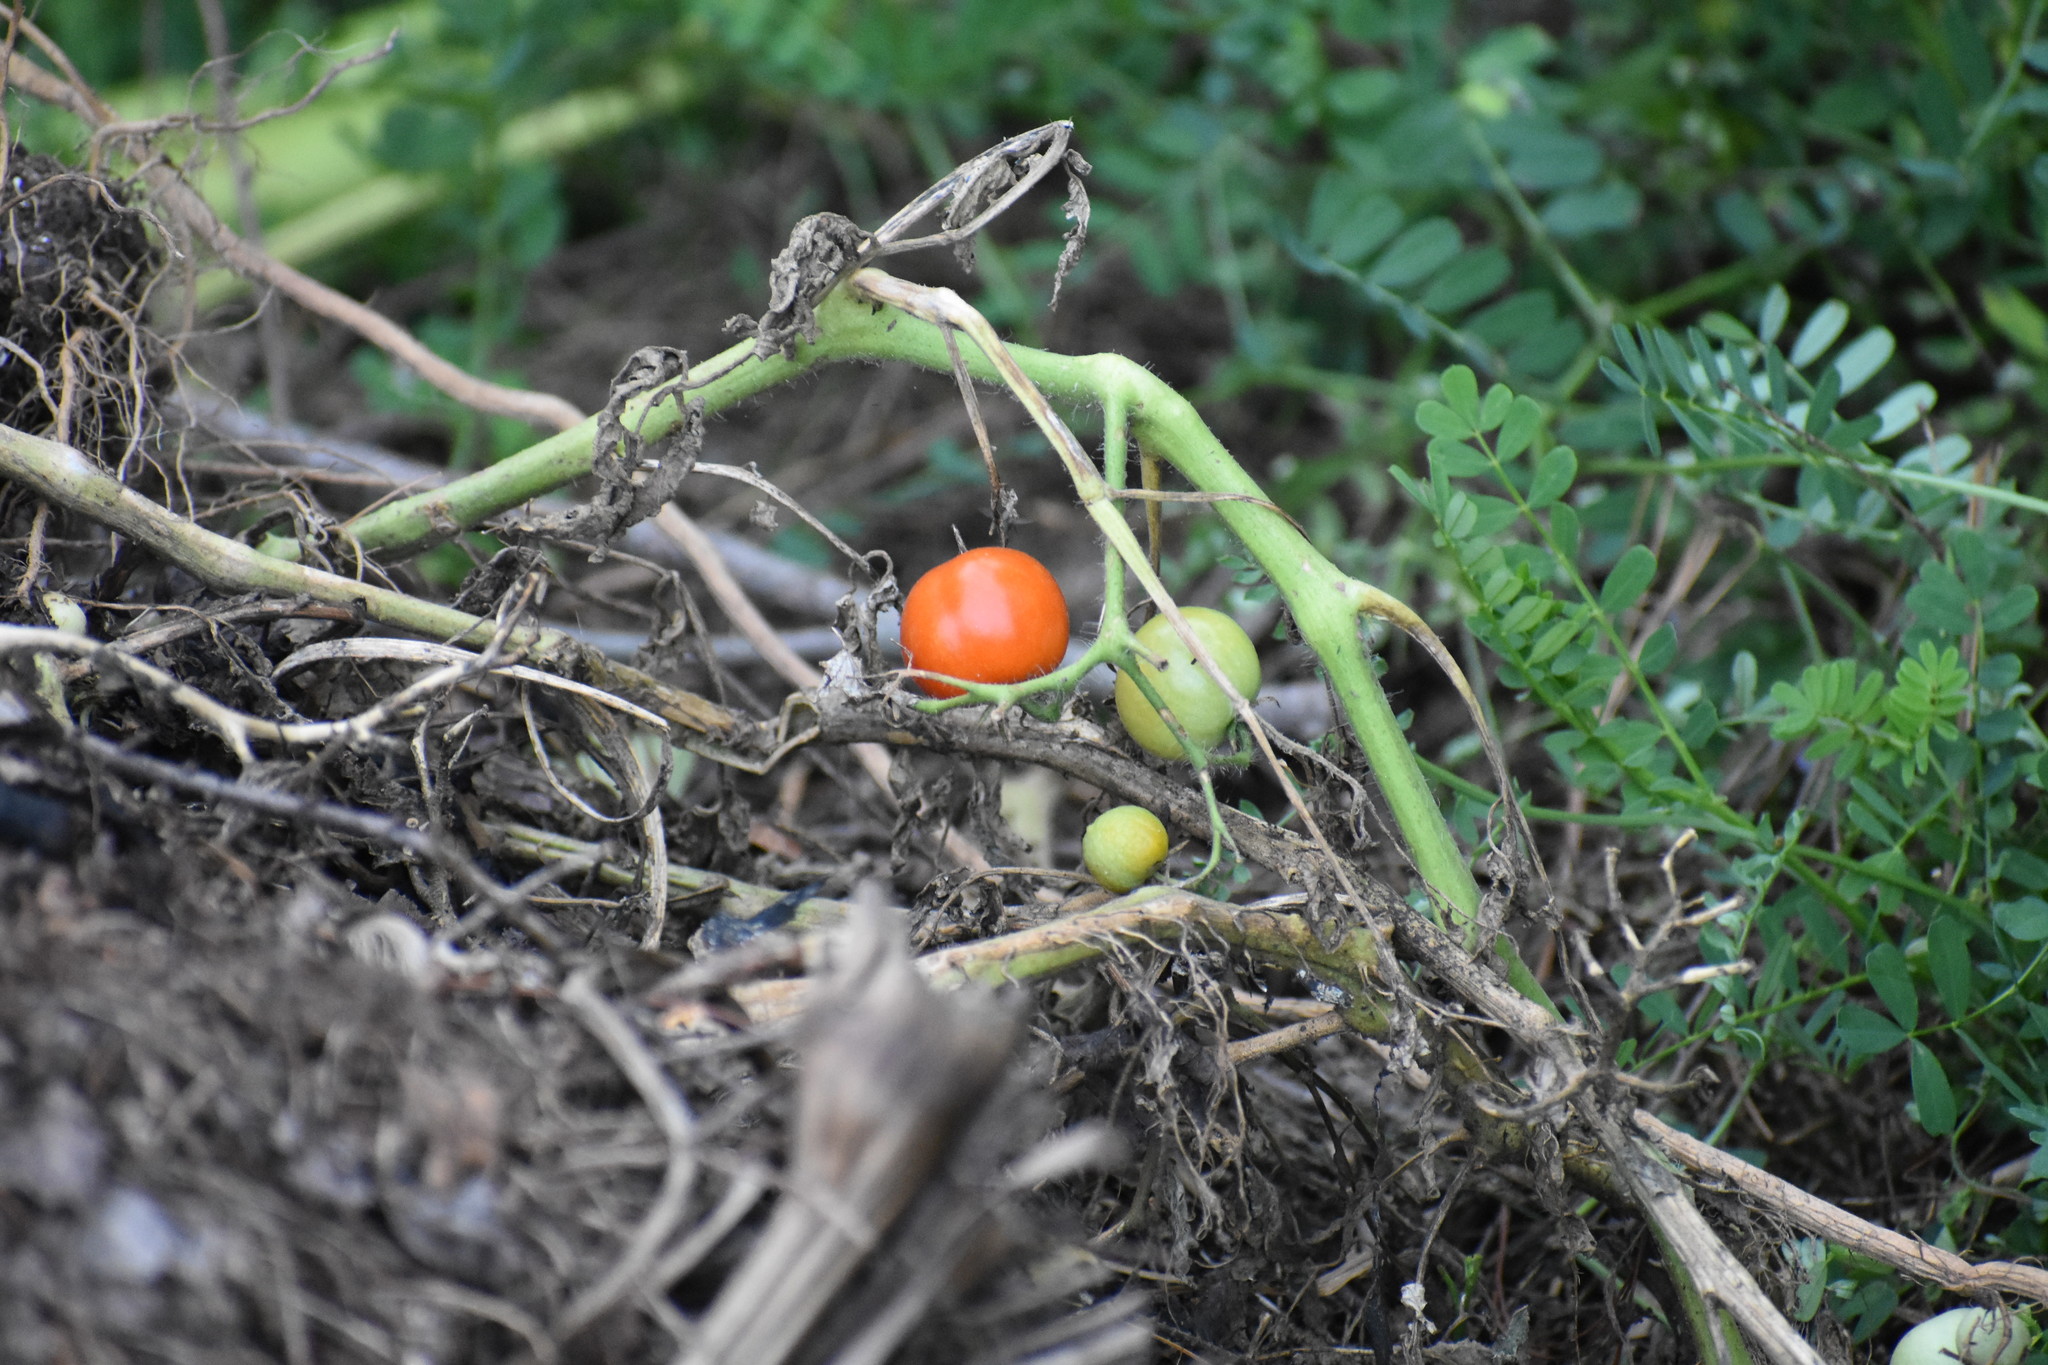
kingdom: Plantae
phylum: Tracheophyta
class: Magnoliopsida
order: Solanales
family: Solanaceae
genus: Solanum
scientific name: Solanum lycopersicum
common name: Garden tomato
